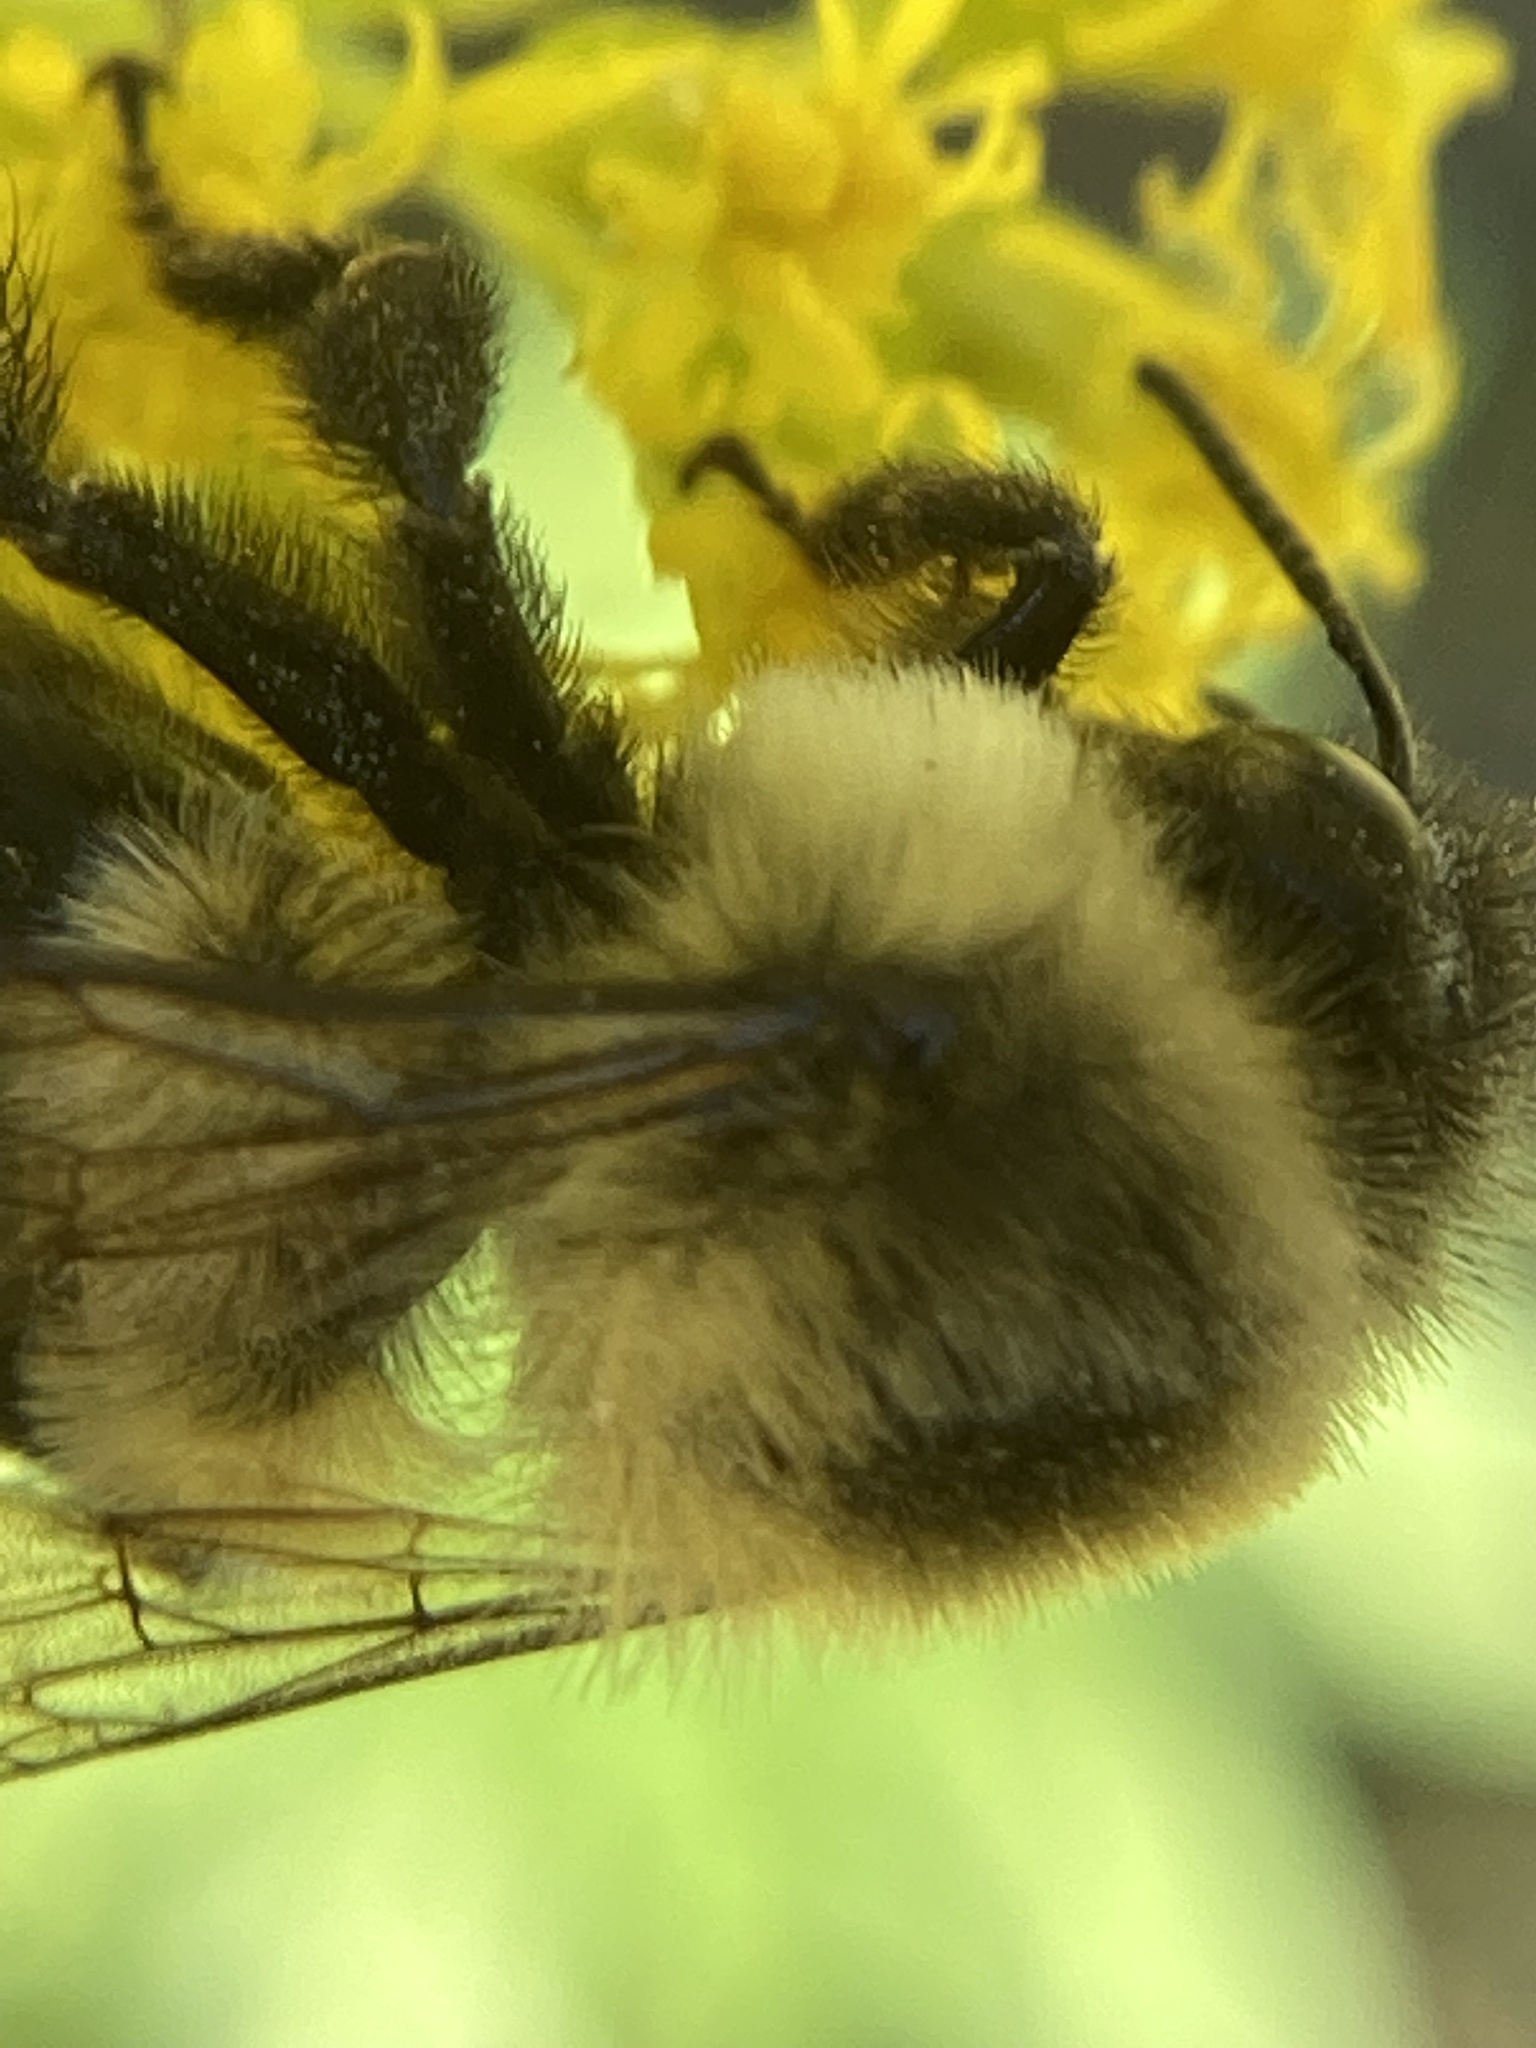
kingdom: Animalia
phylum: Arthropoda
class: Insecta
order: Hymenoptera
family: Apidae
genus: Bombus
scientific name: Bombus impatiens
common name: Common eastern bumble bee
